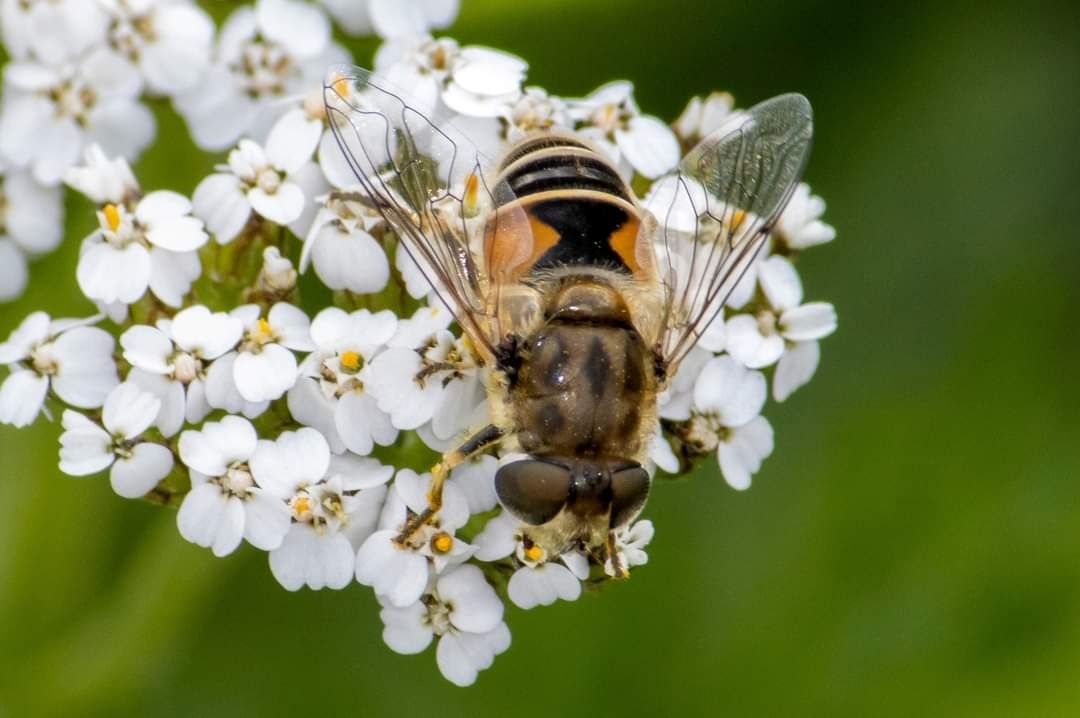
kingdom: Animalia
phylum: Arthropoda
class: Insecta
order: Diptera
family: Syrphidae
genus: Eristalis
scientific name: Eristalis arbustorum
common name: Hover fly
